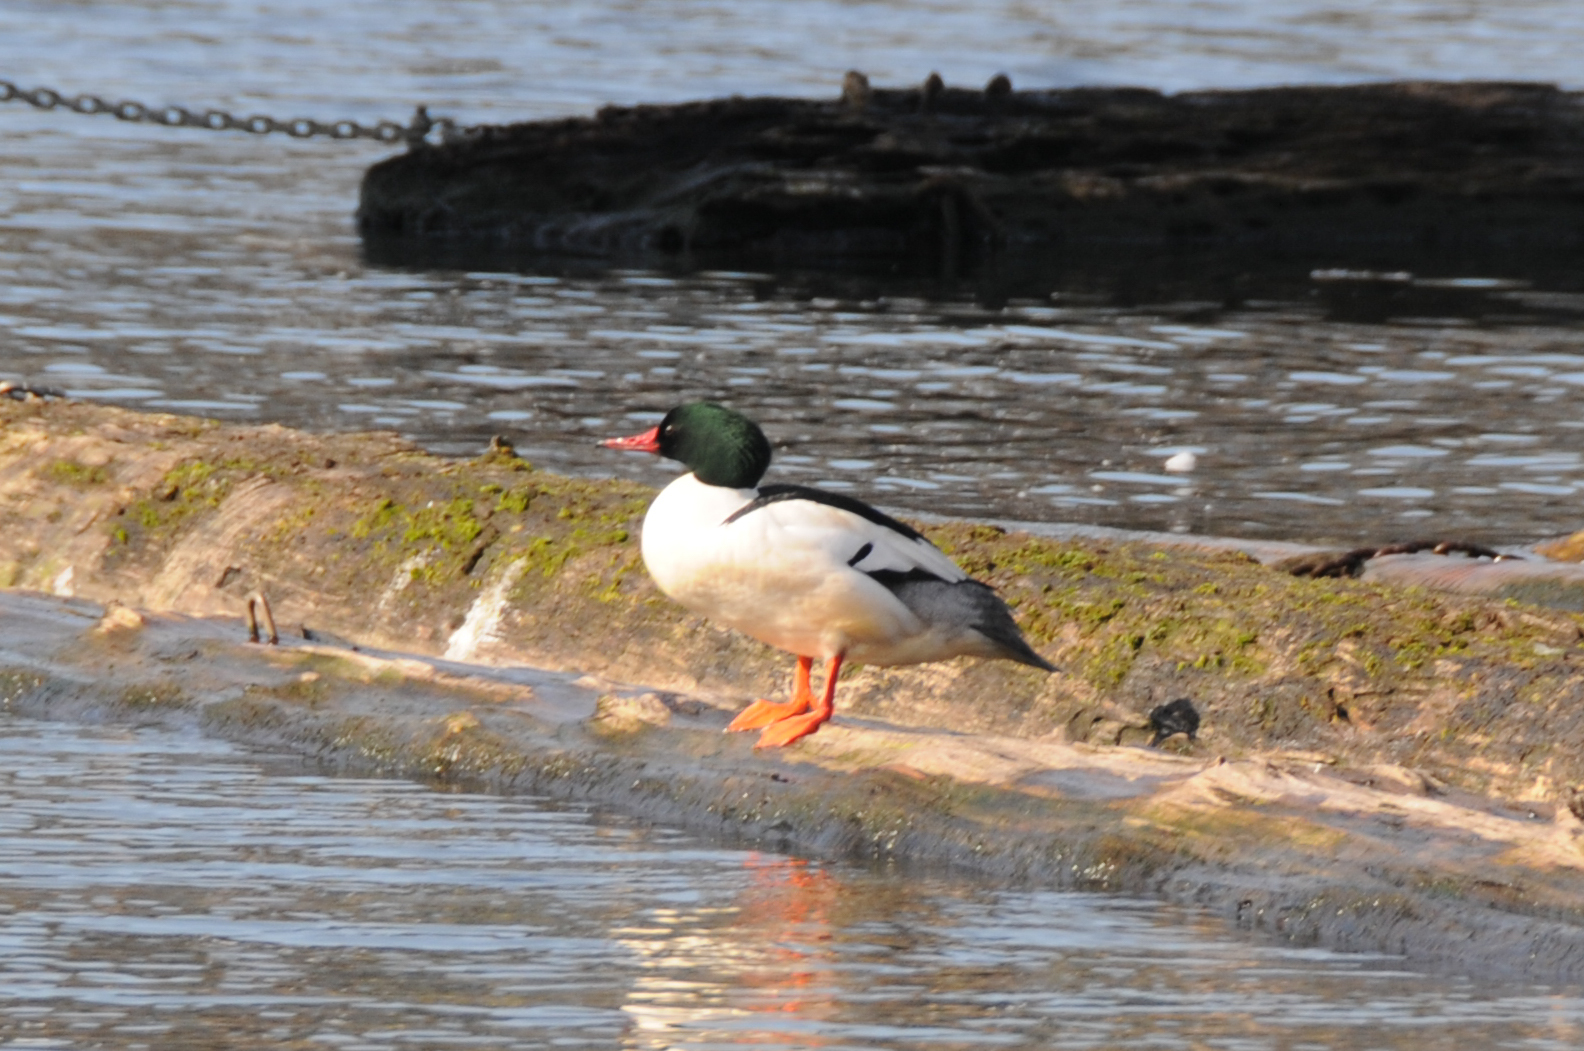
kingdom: Animalia
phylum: Chordata
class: Aves
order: Anseriformes
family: Anatidae
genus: Mergus
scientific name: Mergus merganser
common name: Common merganser
